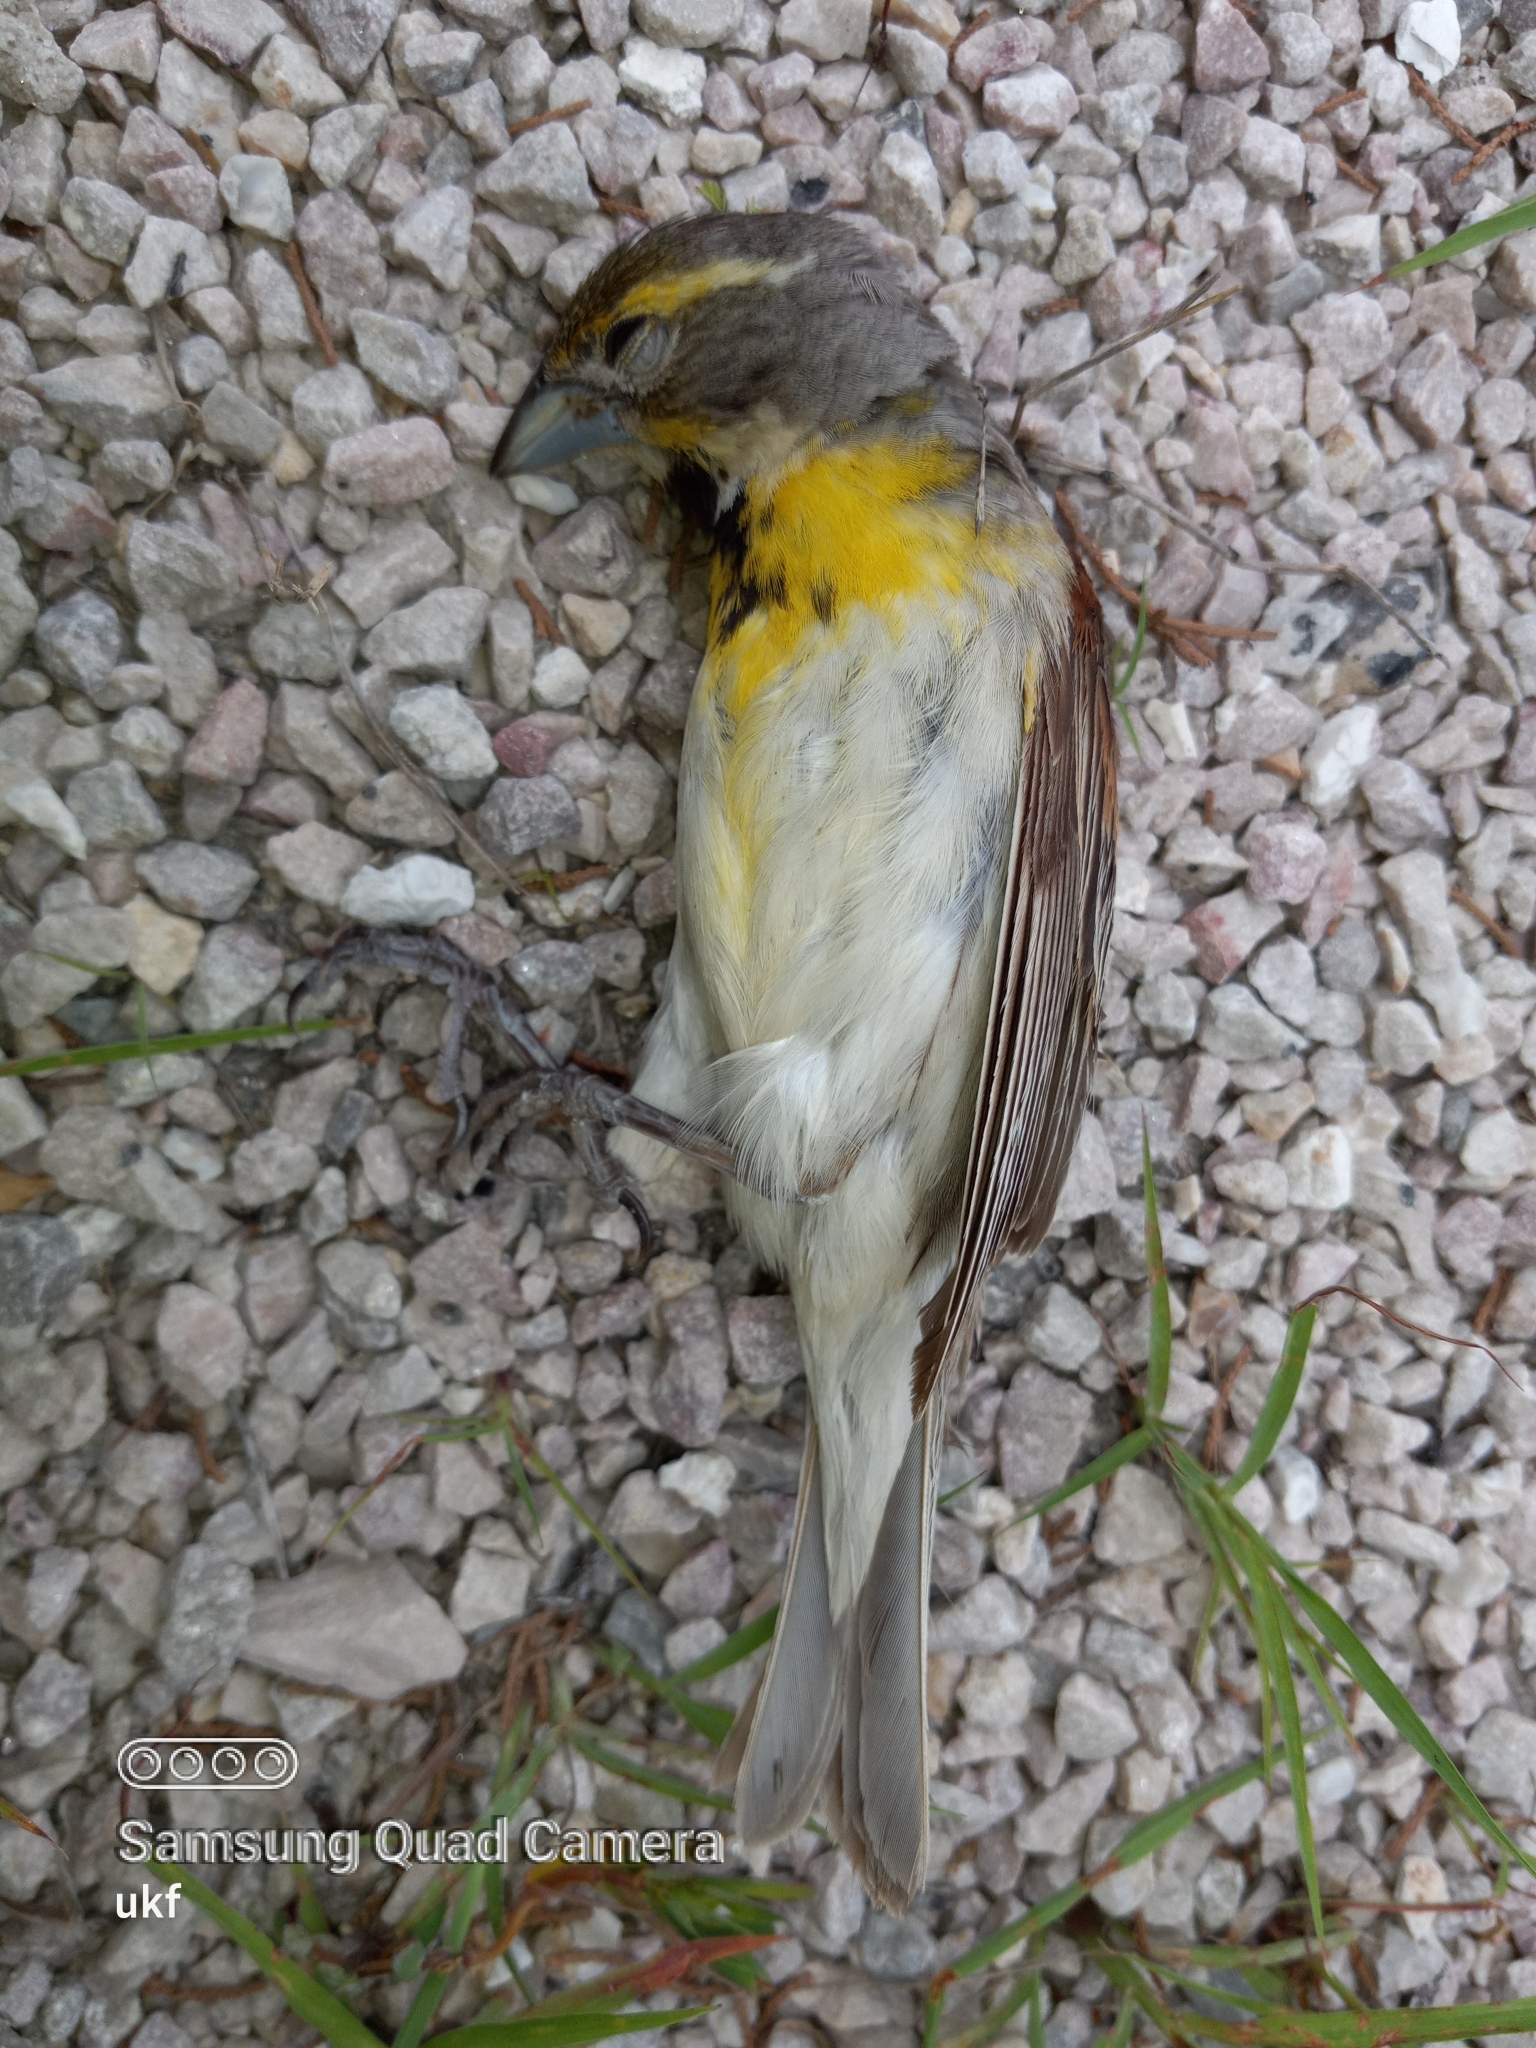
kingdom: Animalia
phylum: Chordata
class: Aves
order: Passeriformes
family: Cardinalidae
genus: Spiza
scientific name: Spiza americana
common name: Dickcissel
